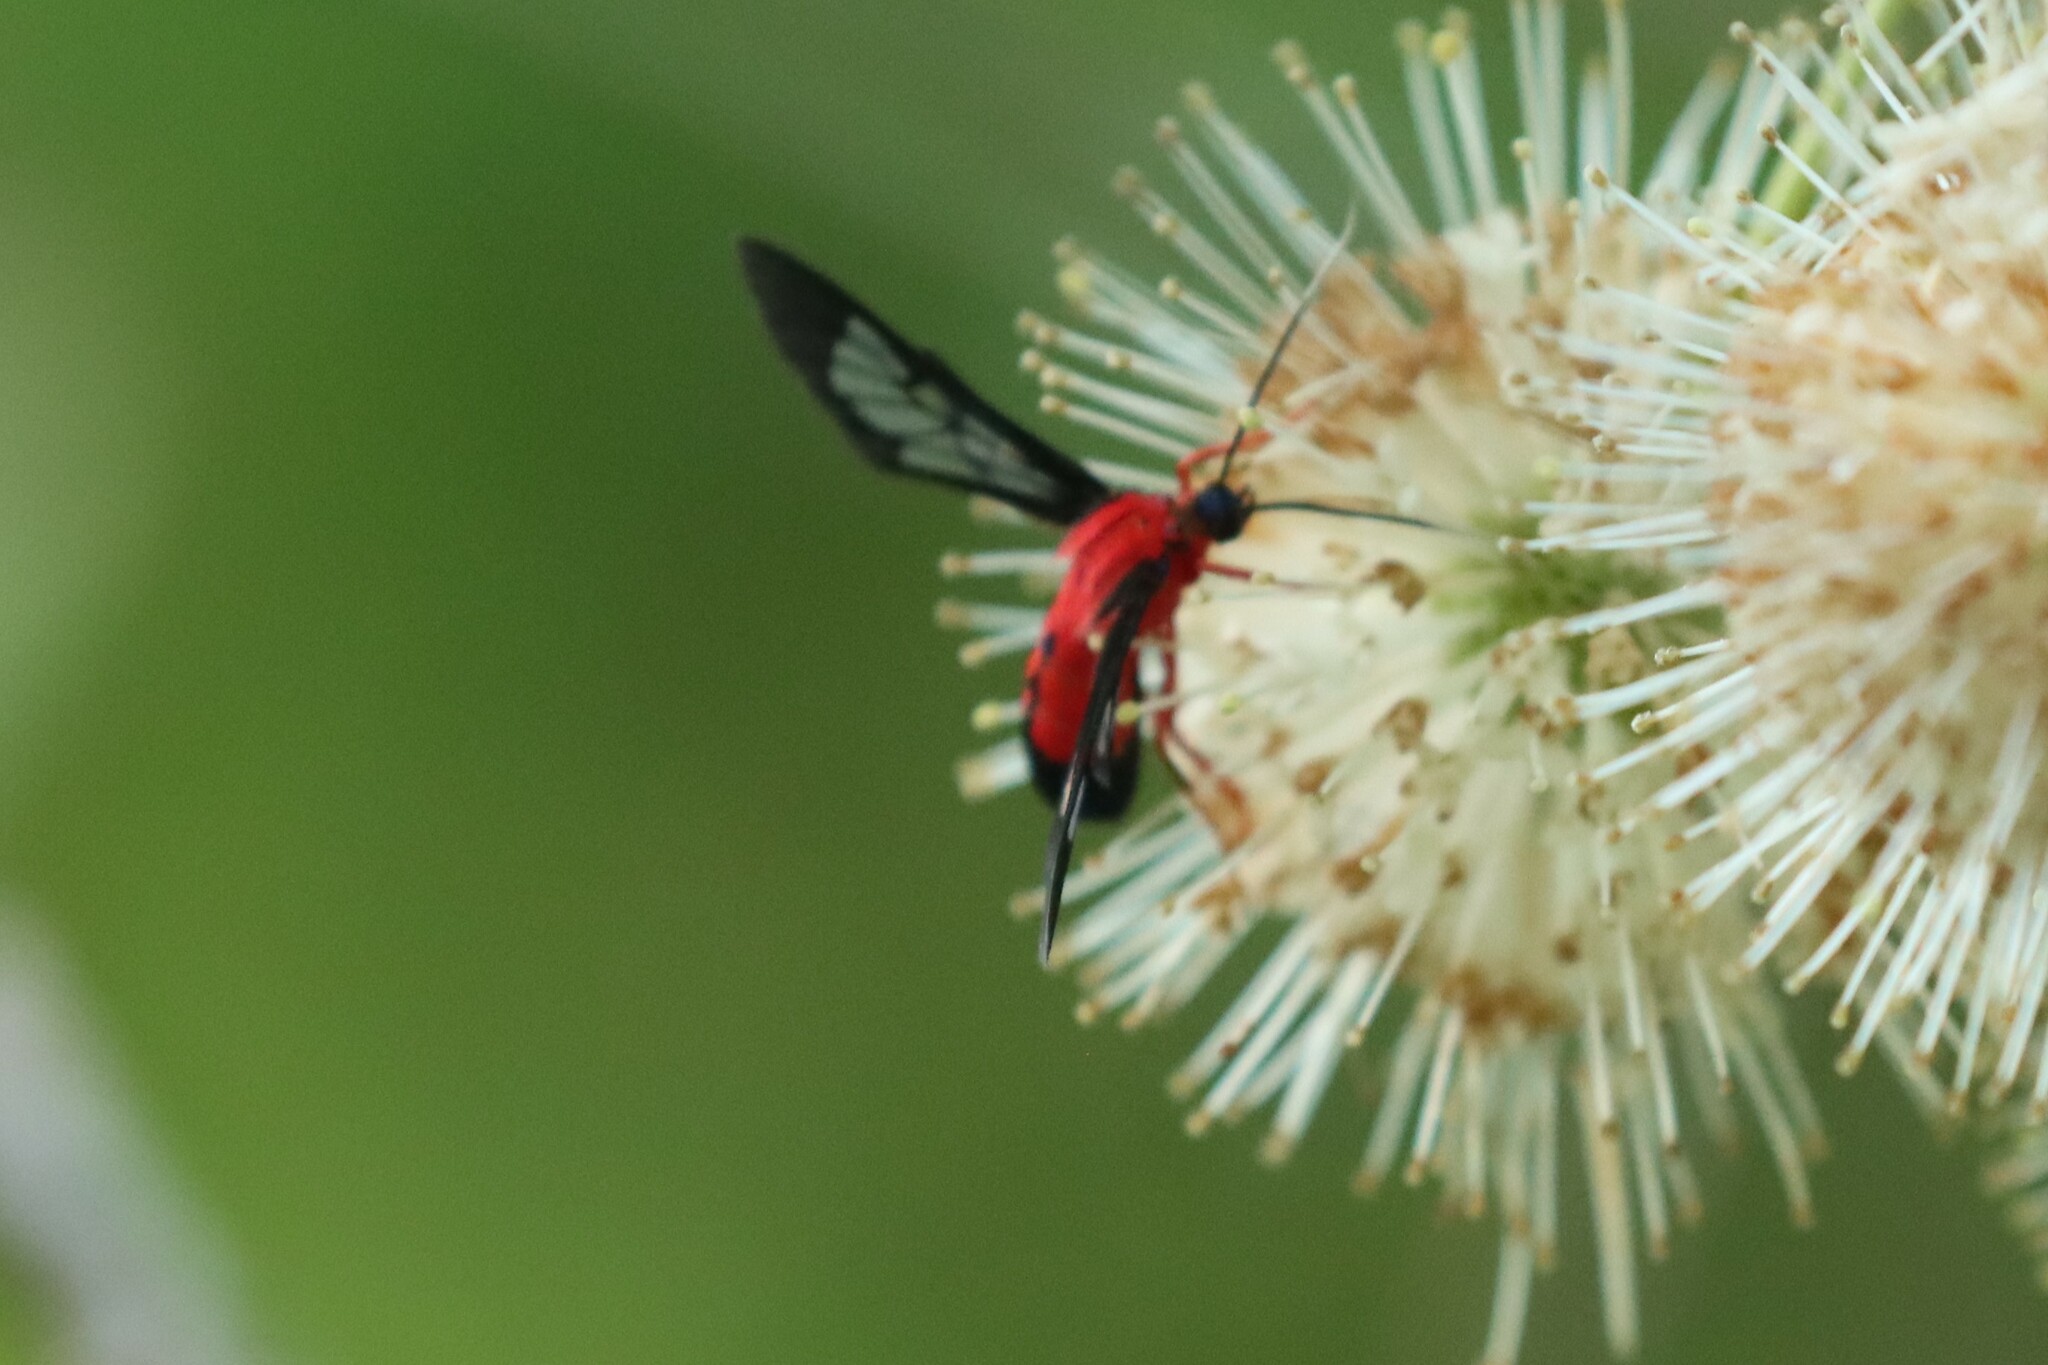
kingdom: Animalia
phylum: Arthropoda
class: Insecta
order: Lepidoptera
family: Erebidae
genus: Cosmosoma
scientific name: Cosmosoma myrodora
